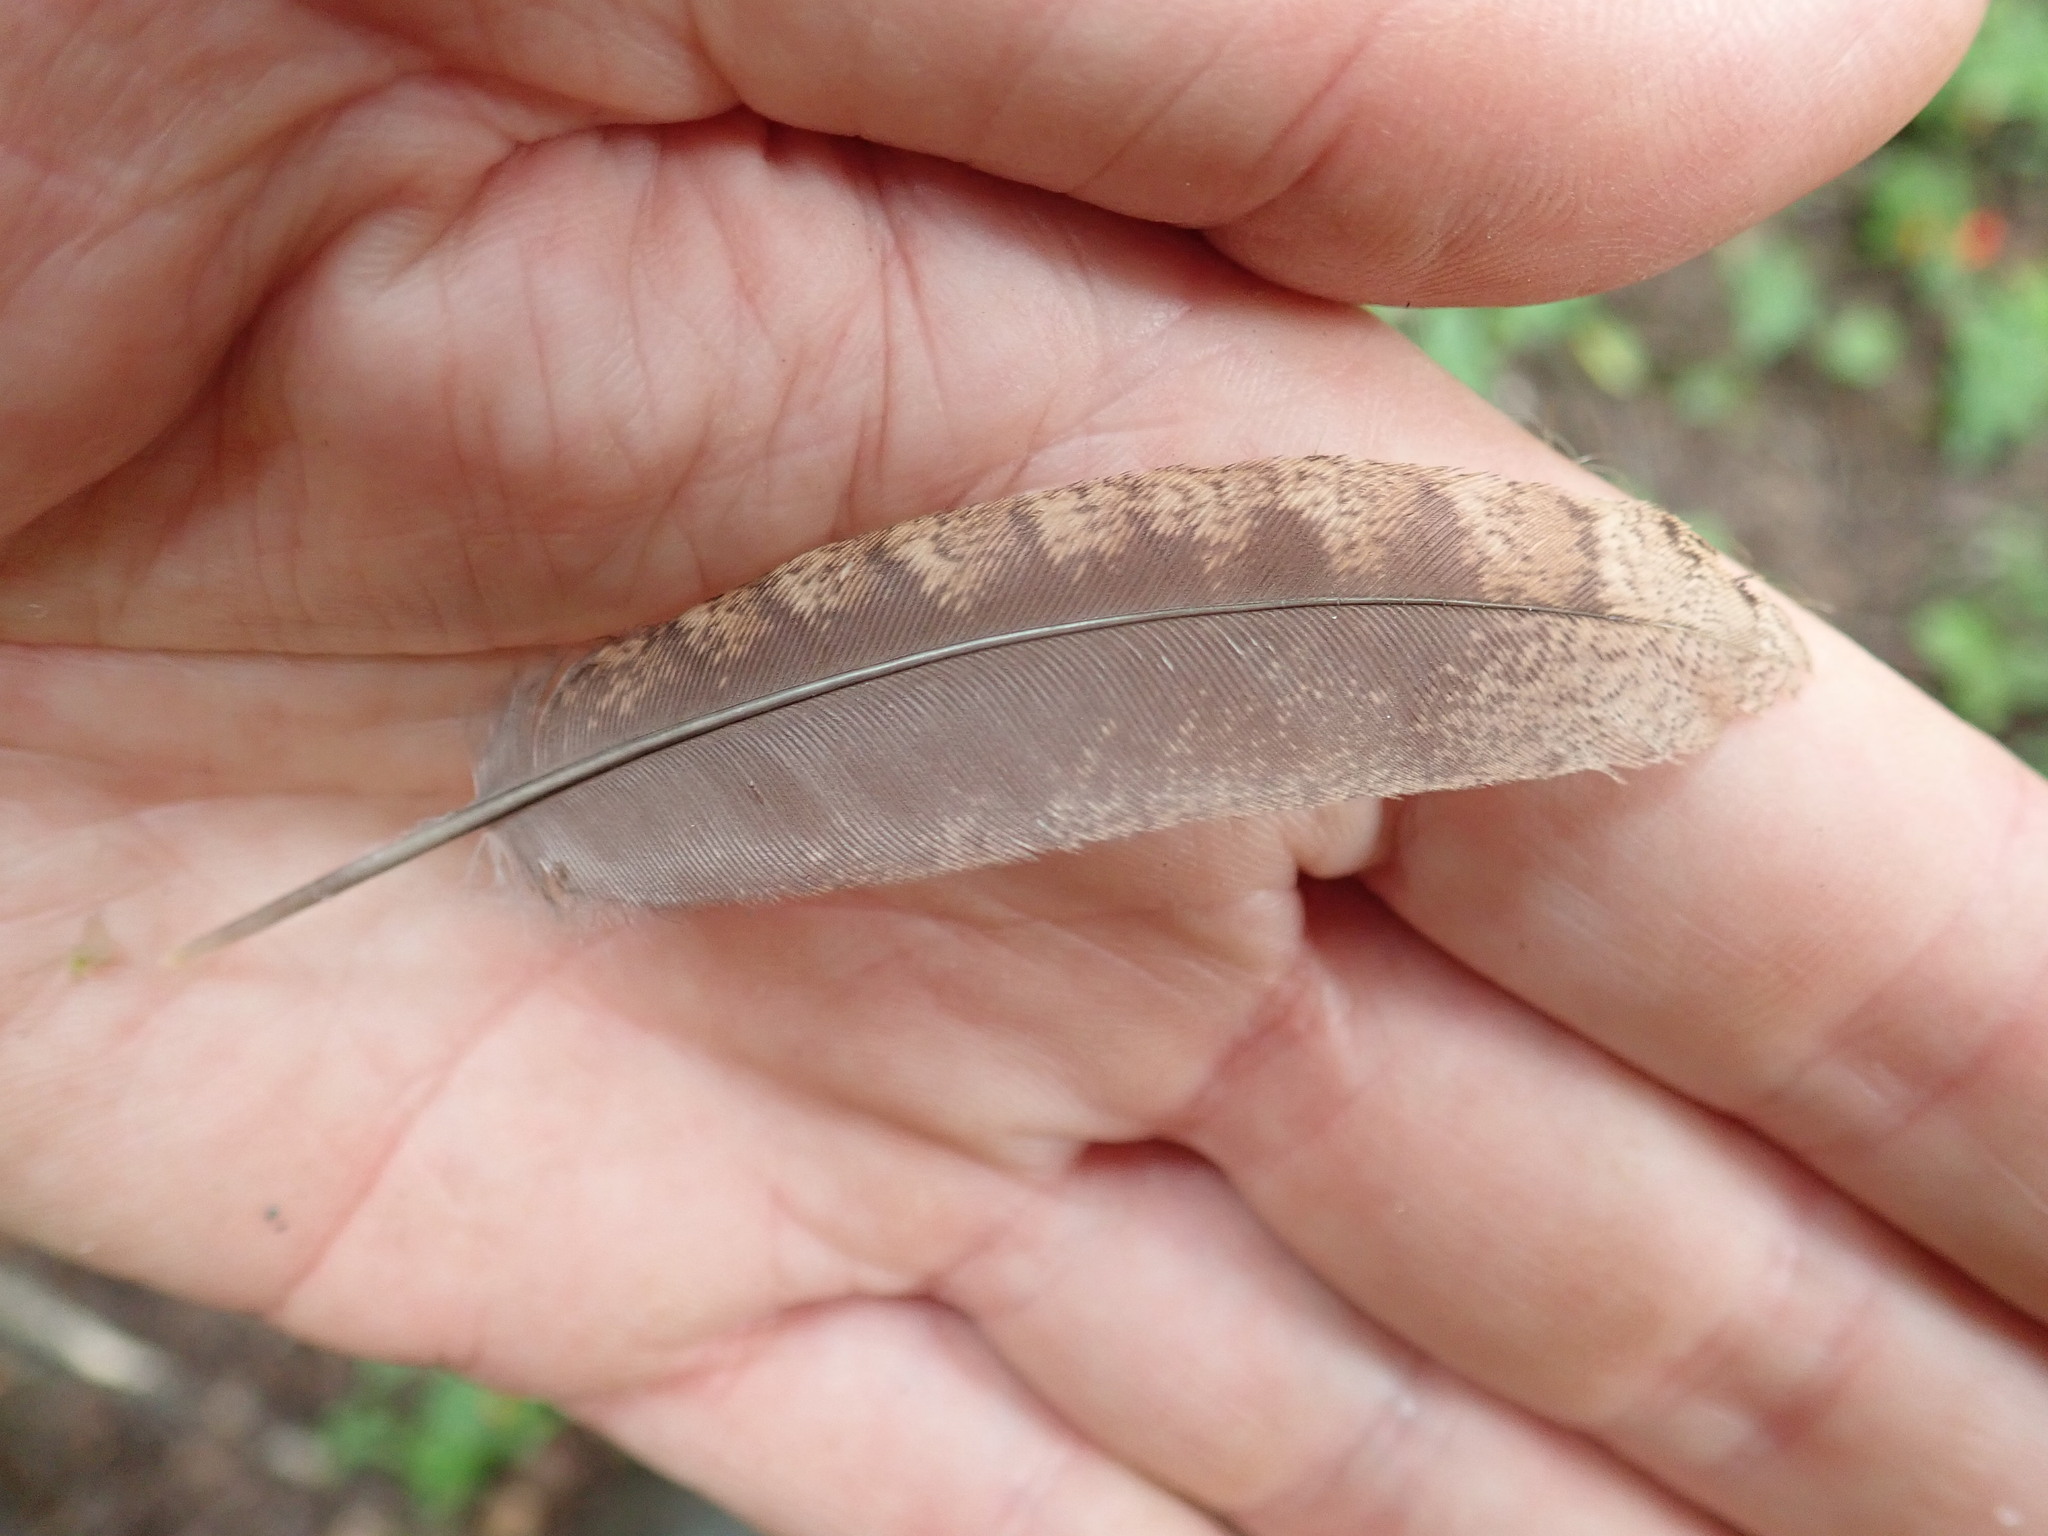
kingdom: Animalia
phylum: Chordata
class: Aves
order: Galliformes
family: Phasianidae
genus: Bonasa
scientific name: Bonasa umbellus
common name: Ruffed grouse
